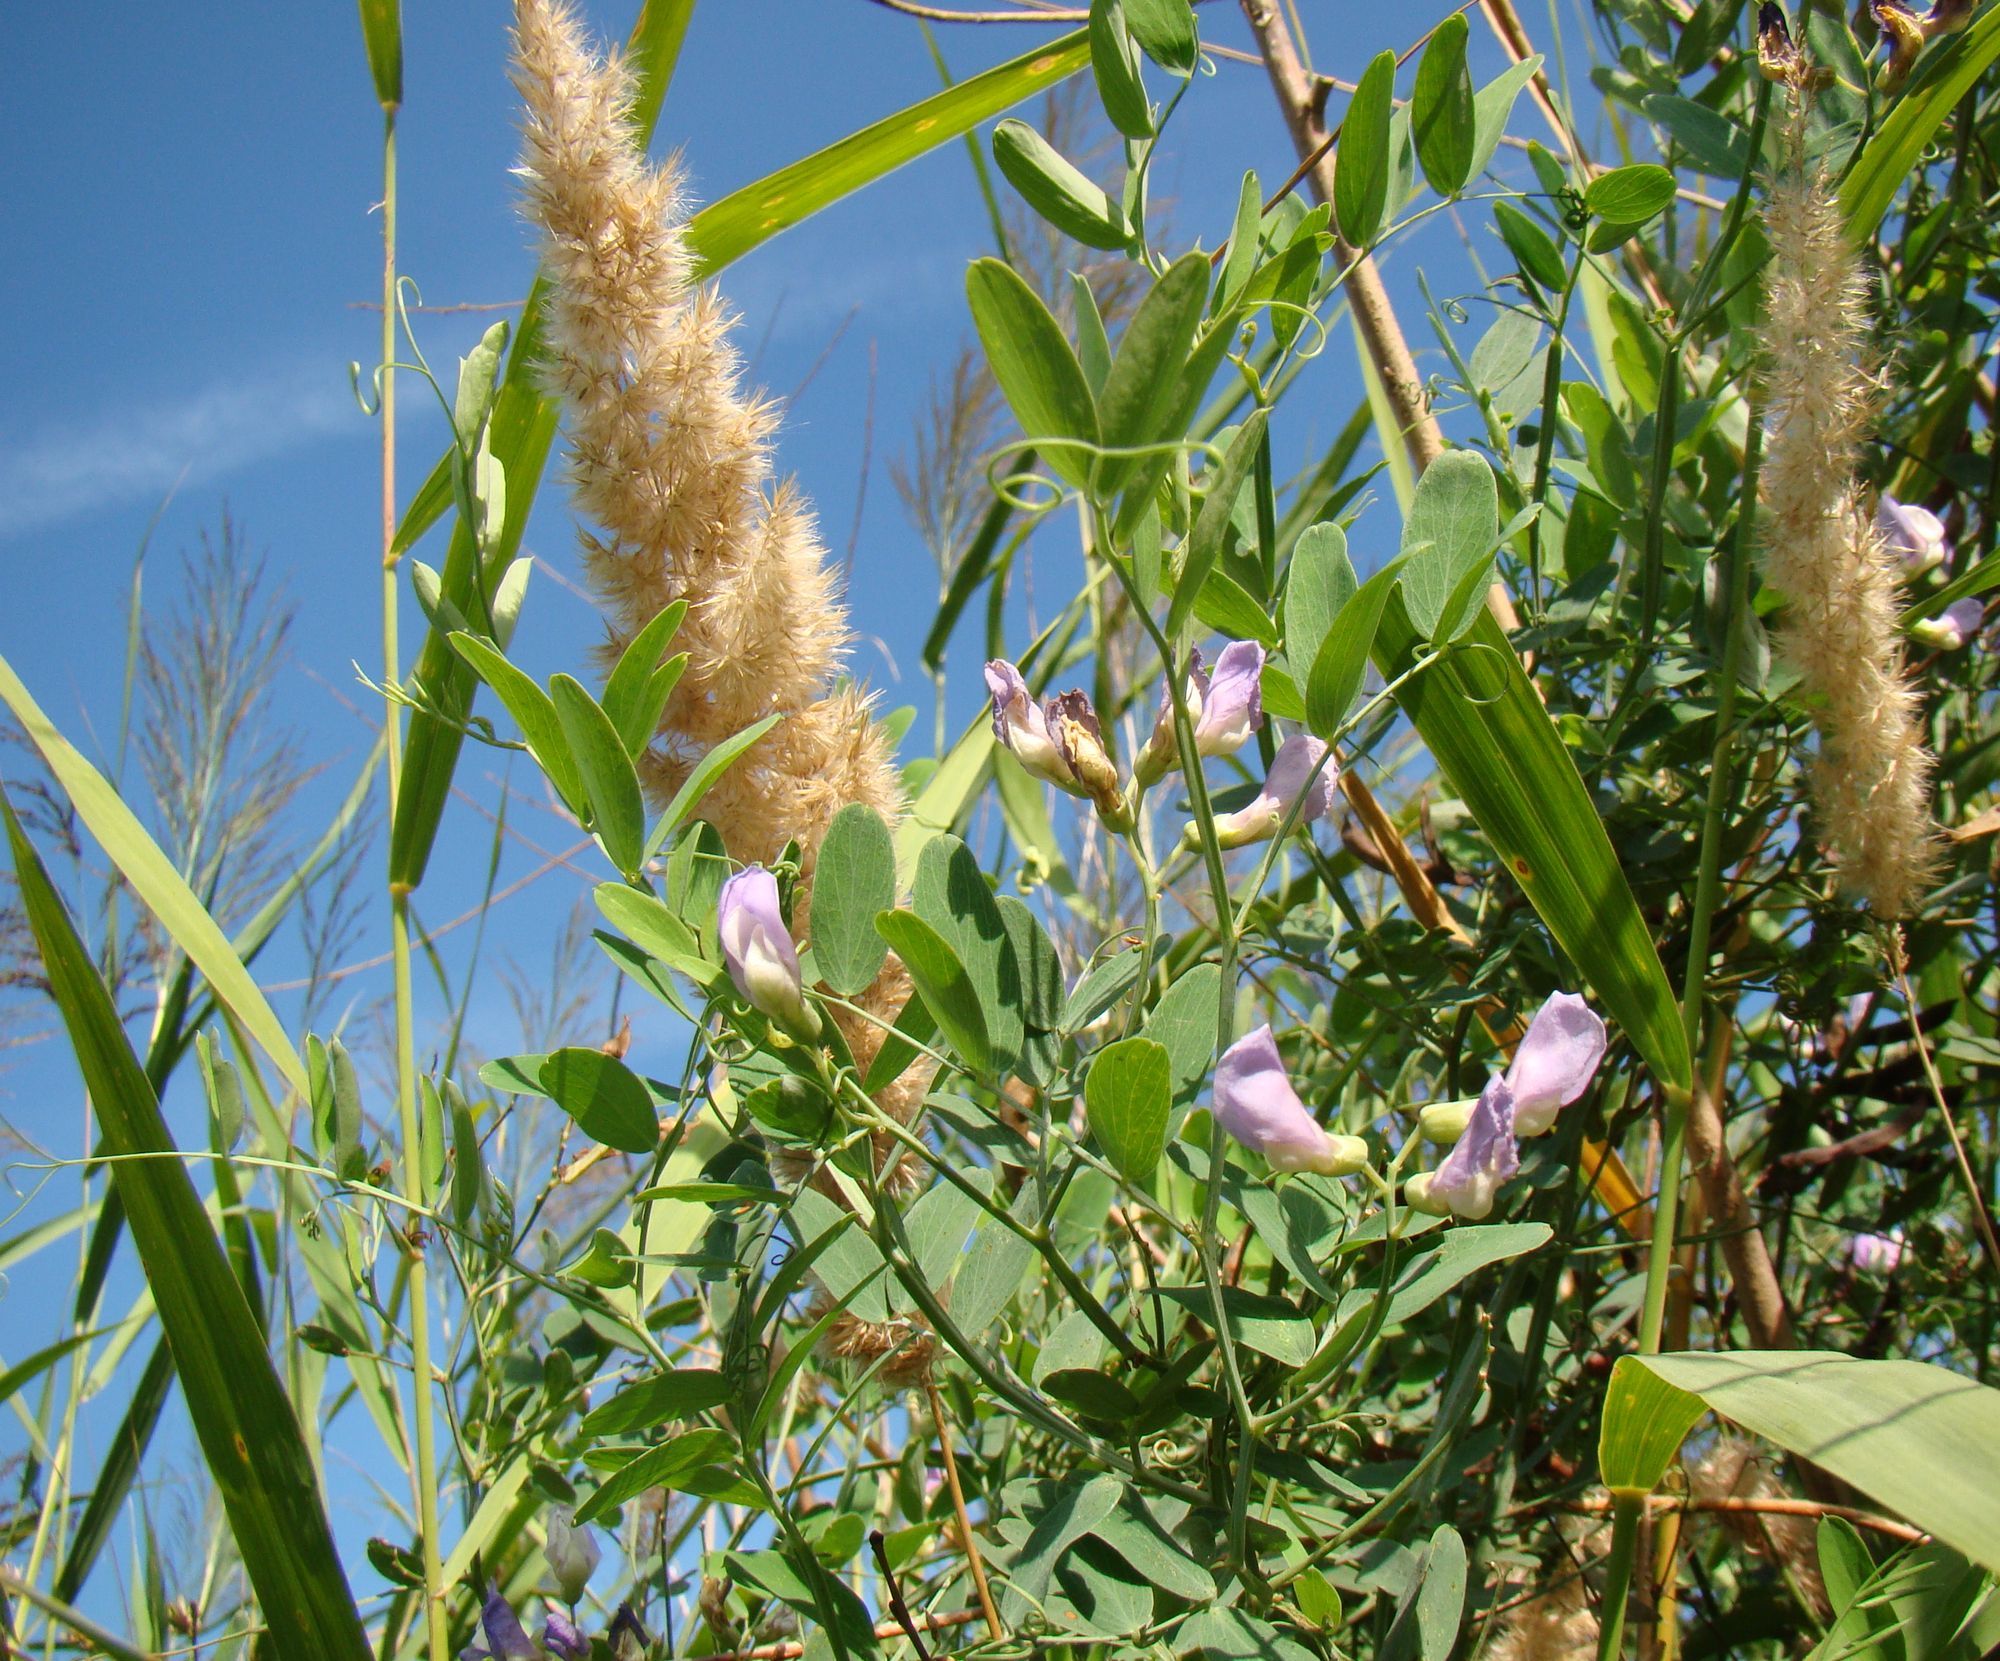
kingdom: Plantae
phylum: Tracheophyta
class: Magnoliopsida
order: Fabales
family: Fabaceae
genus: Lathyrus
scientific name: Lathyrus incurvus
